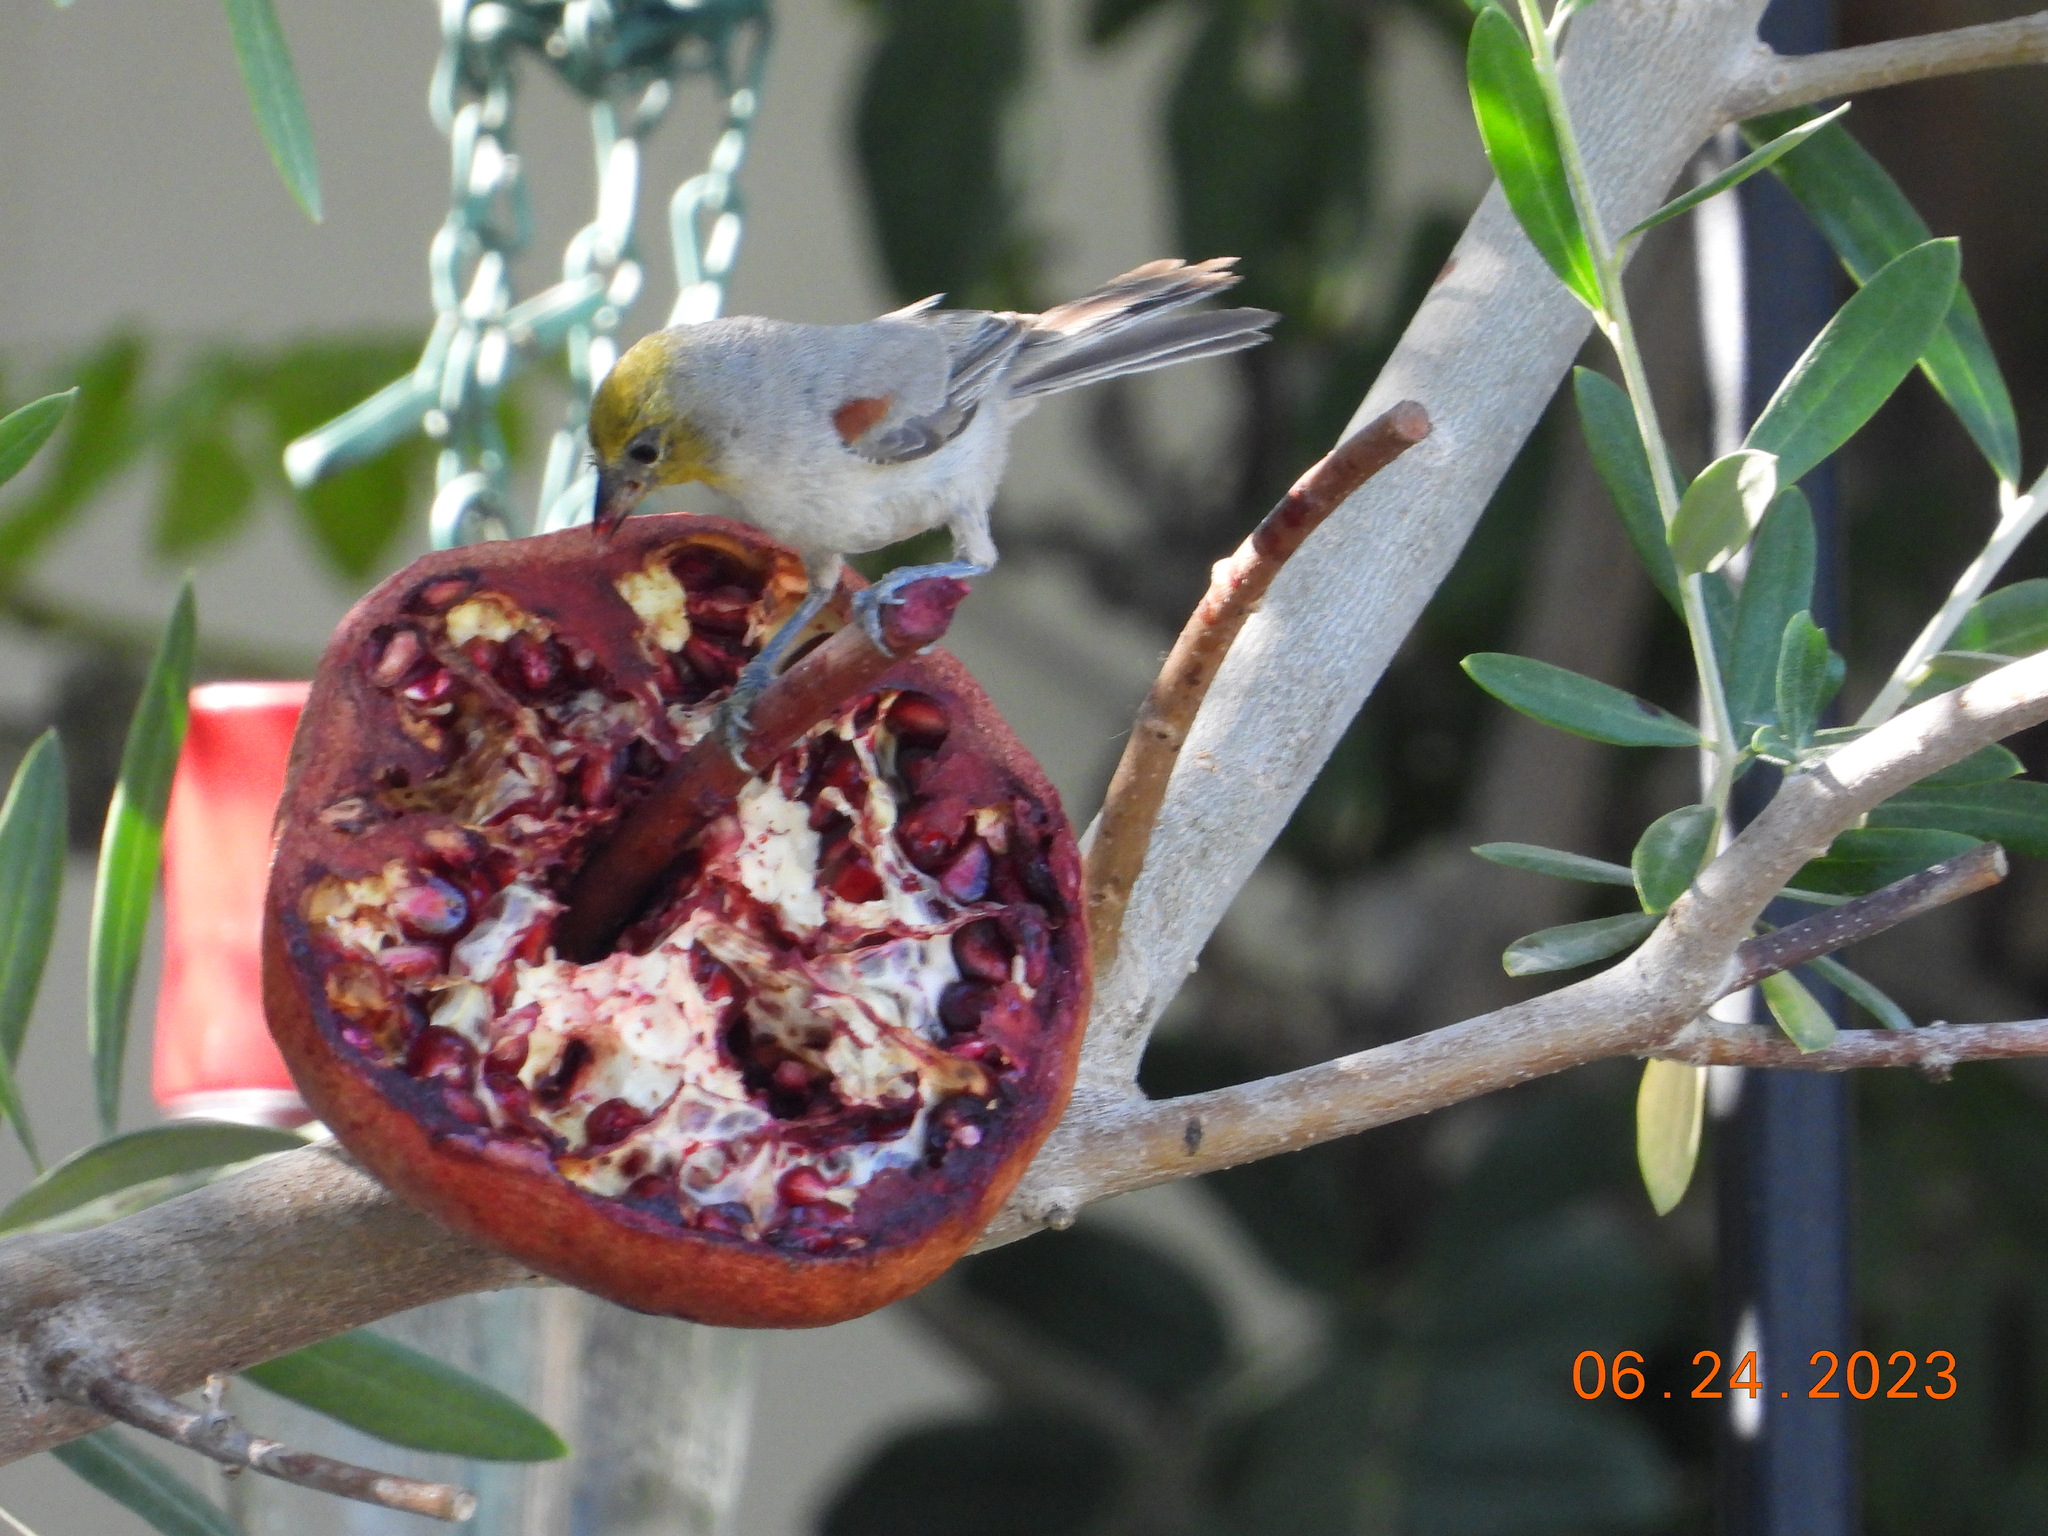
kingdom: Animalia
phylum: Chordata
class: Aves
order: Passeriformes
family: Remizidae
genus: Auriparus
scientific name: Auriparus flaviceps
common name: Verdin
